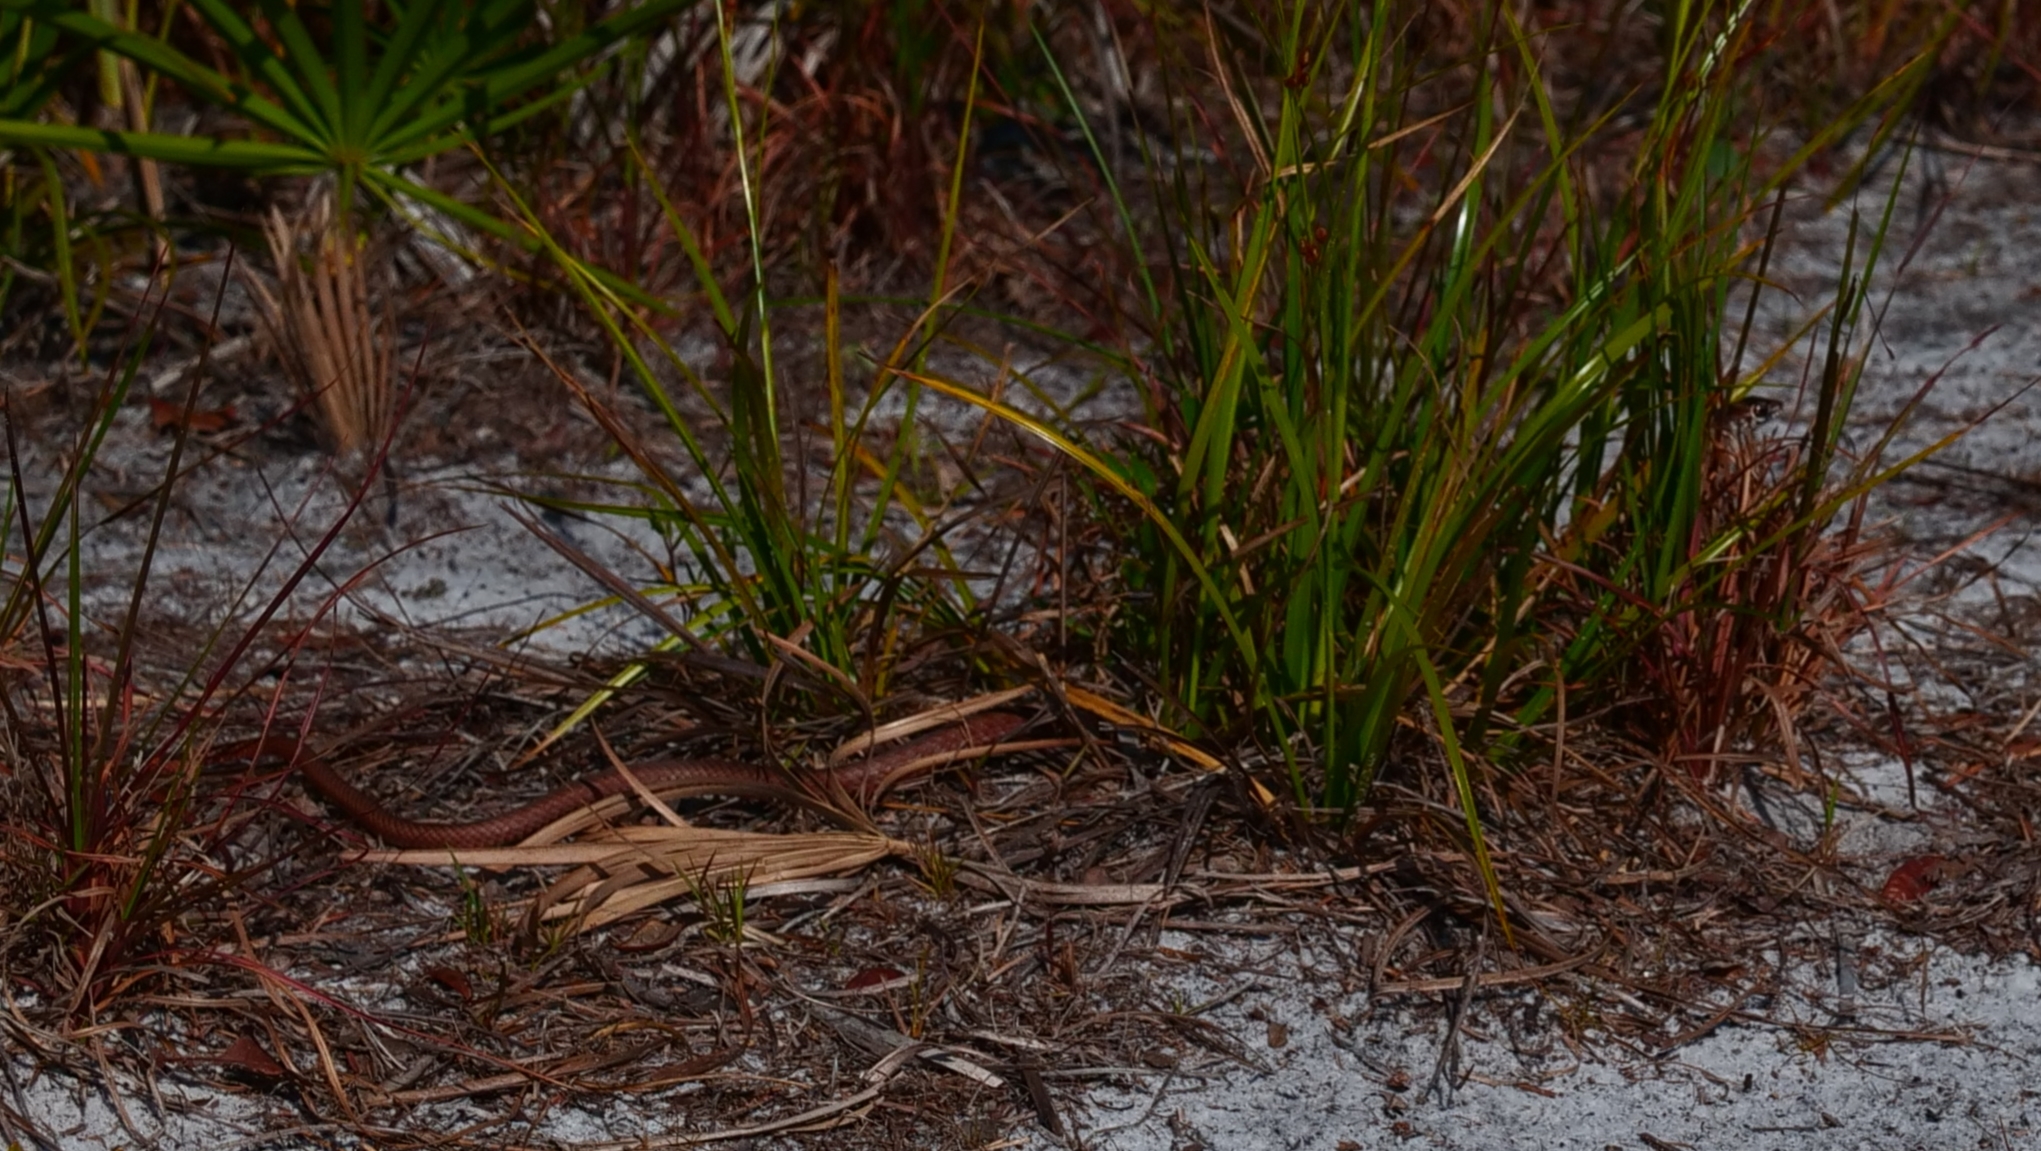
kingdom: Animalia
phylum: Chordata
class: Squamata
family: Colubridae
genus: Masticophis
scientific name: Masticophis flagellum
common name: Coachwhip
